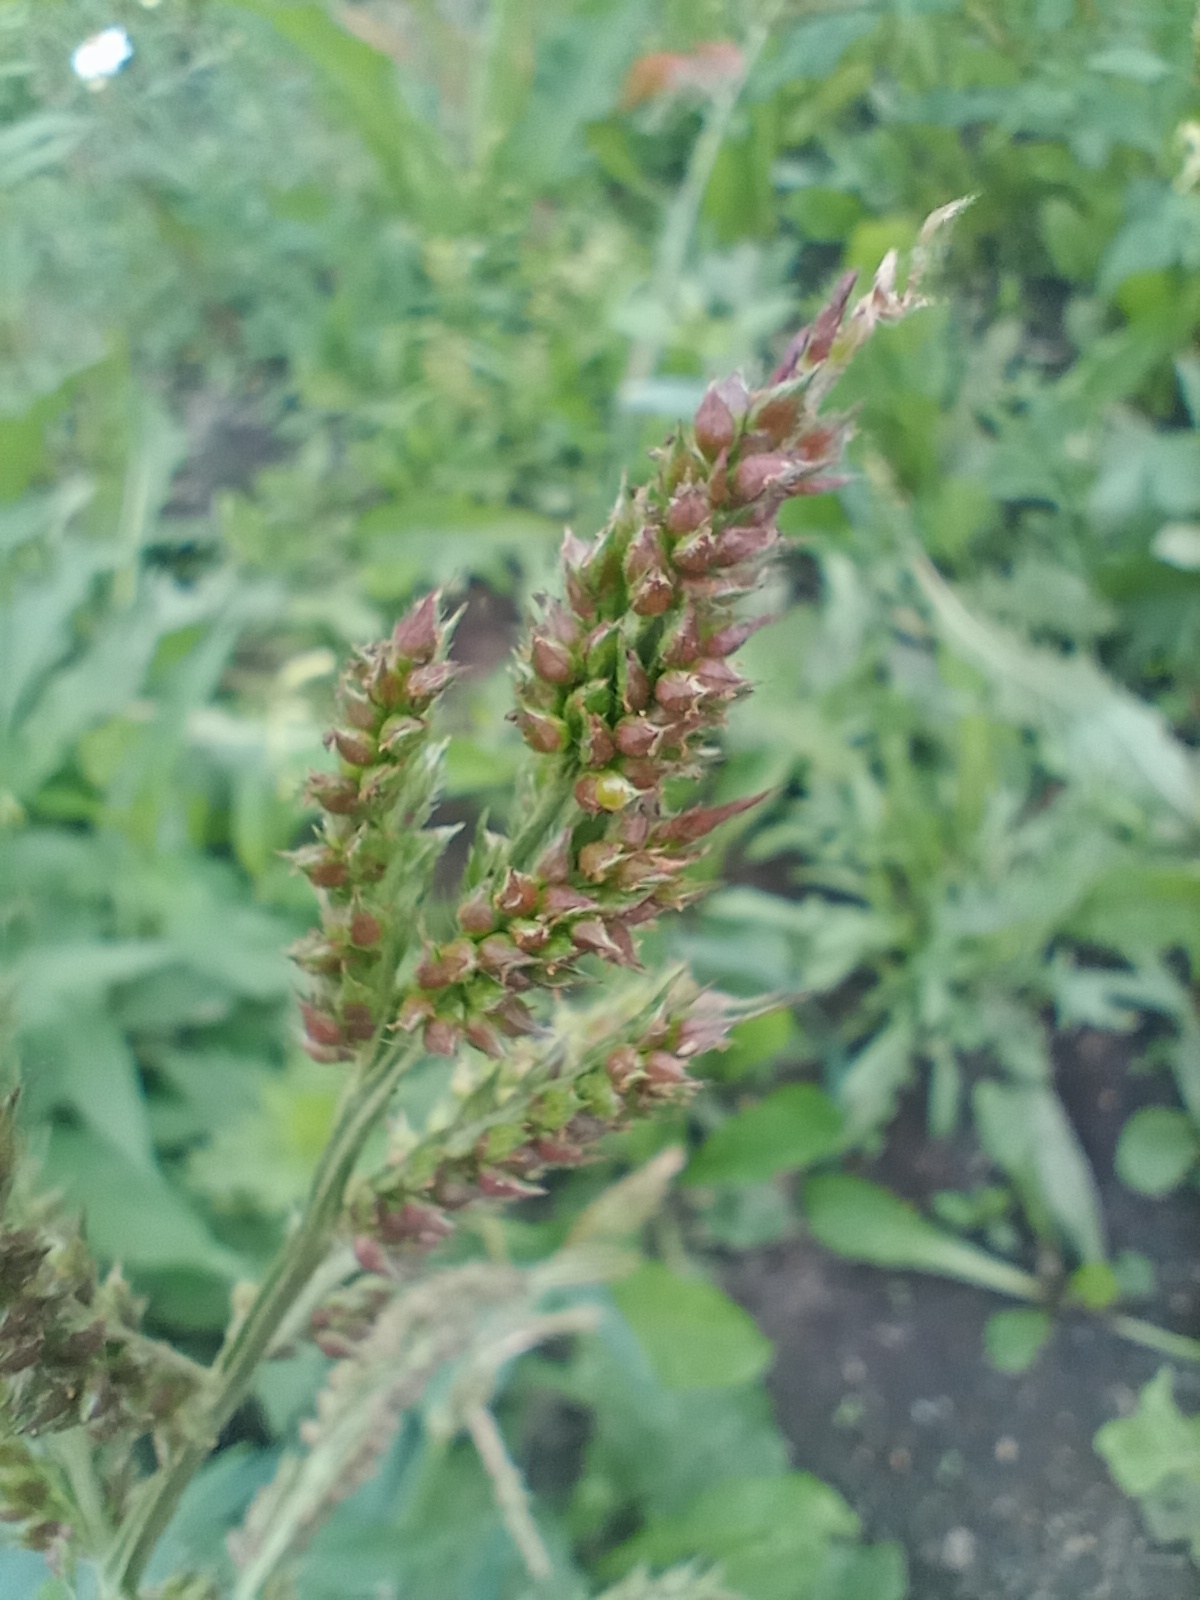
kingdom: Plantae
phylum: Tracheophyta
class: Liliopsida
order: Poales
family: Poaceae
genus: Echinochloa
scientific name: Echinochloa crus-galli
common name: Cockspur
